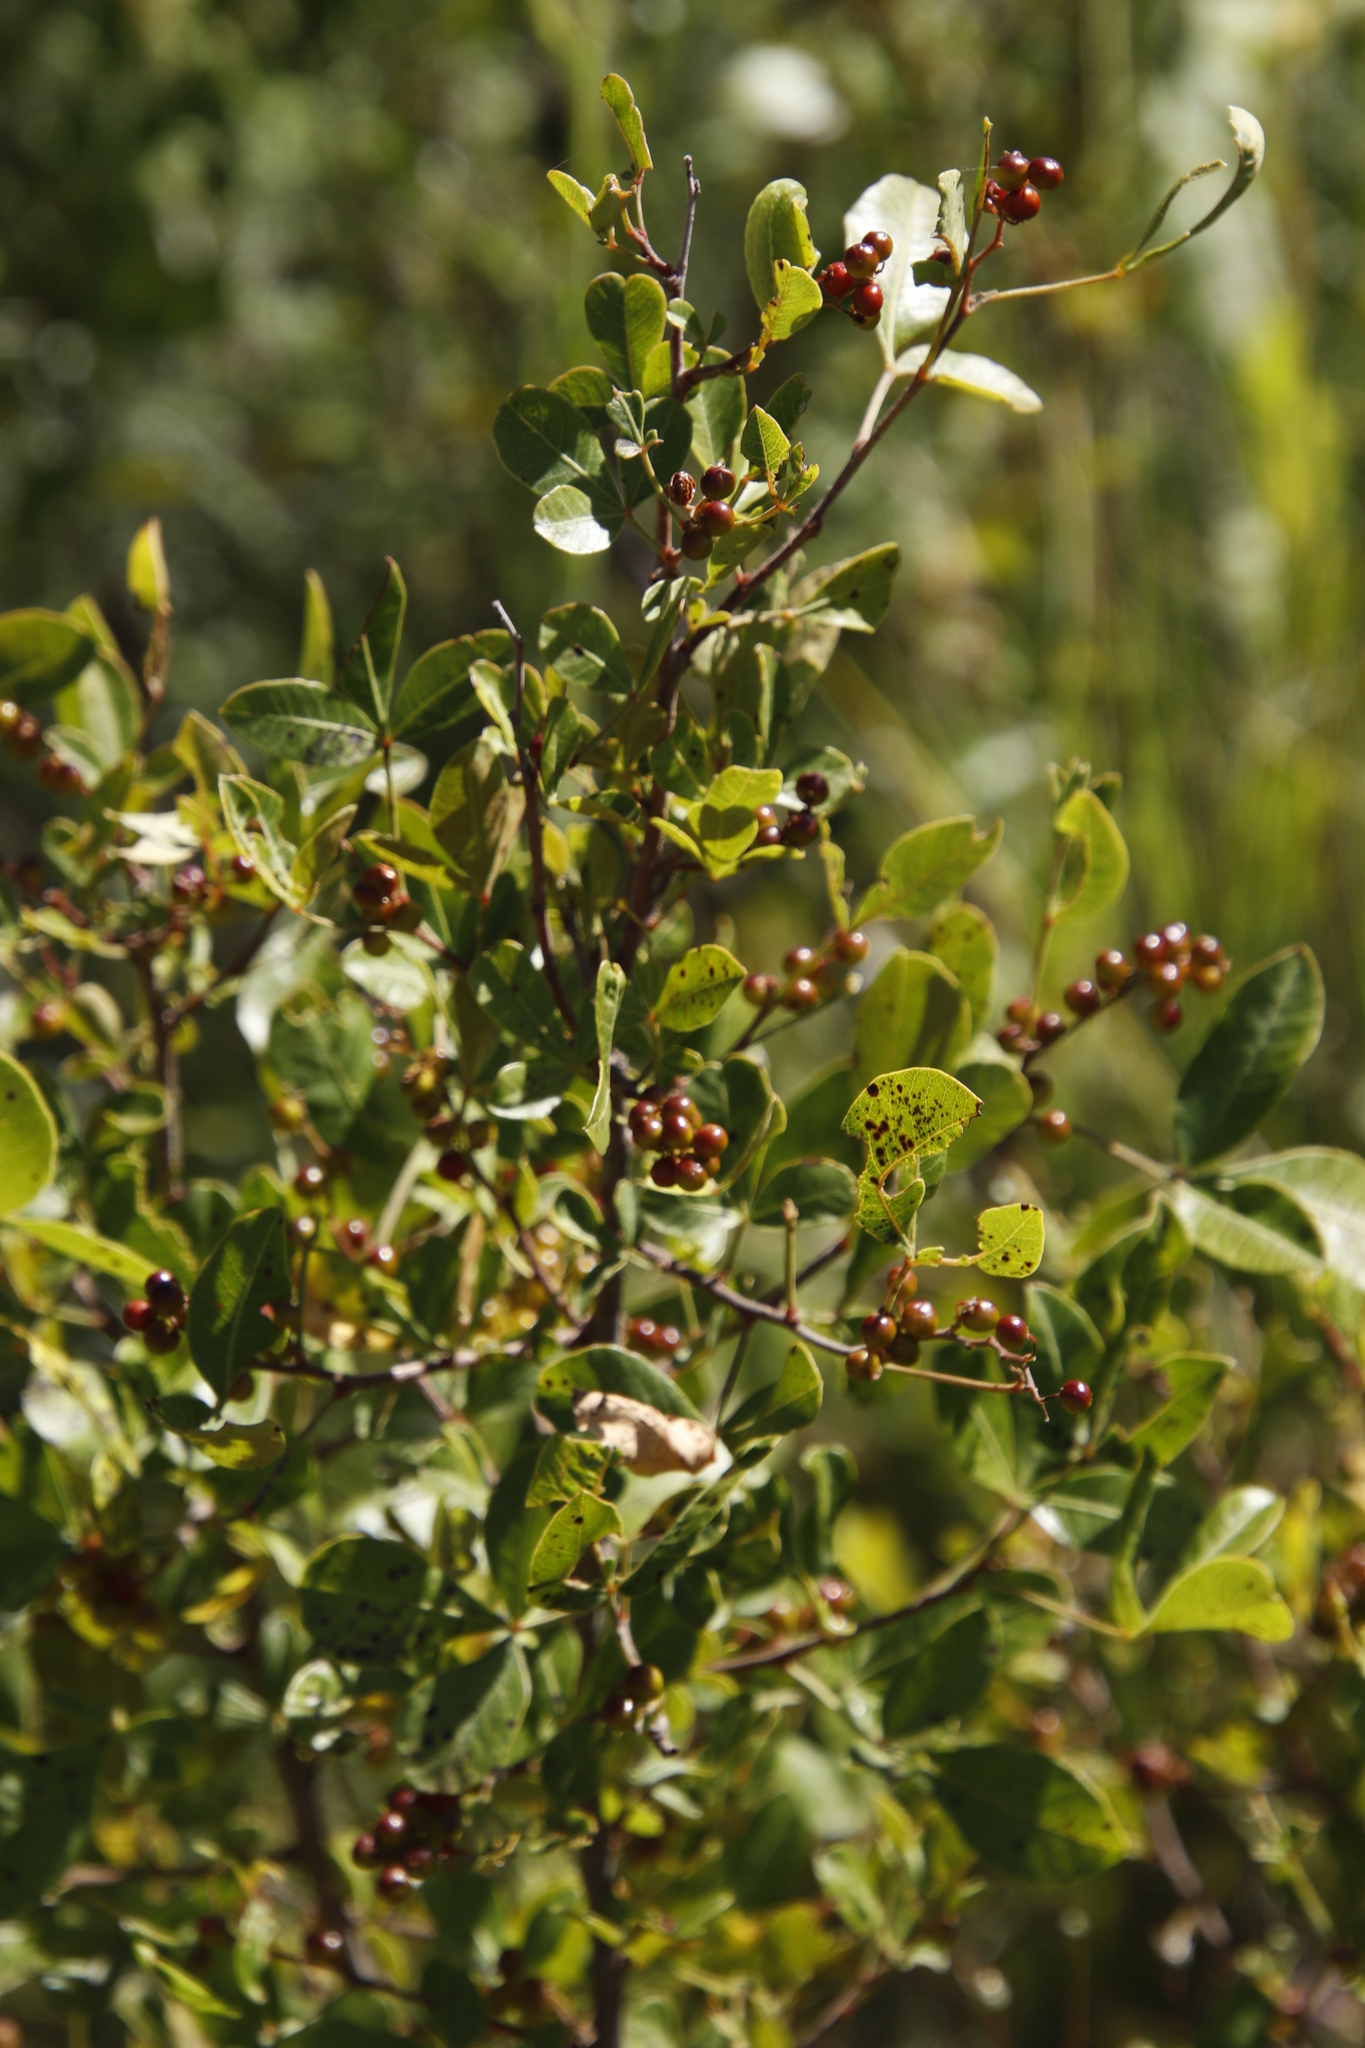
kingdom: Plantae
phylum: Tracheophyta
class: Magnoliopsida
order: Sapindales
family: Anacardiaceae
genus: Searsia
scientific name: Searsia divaricata
